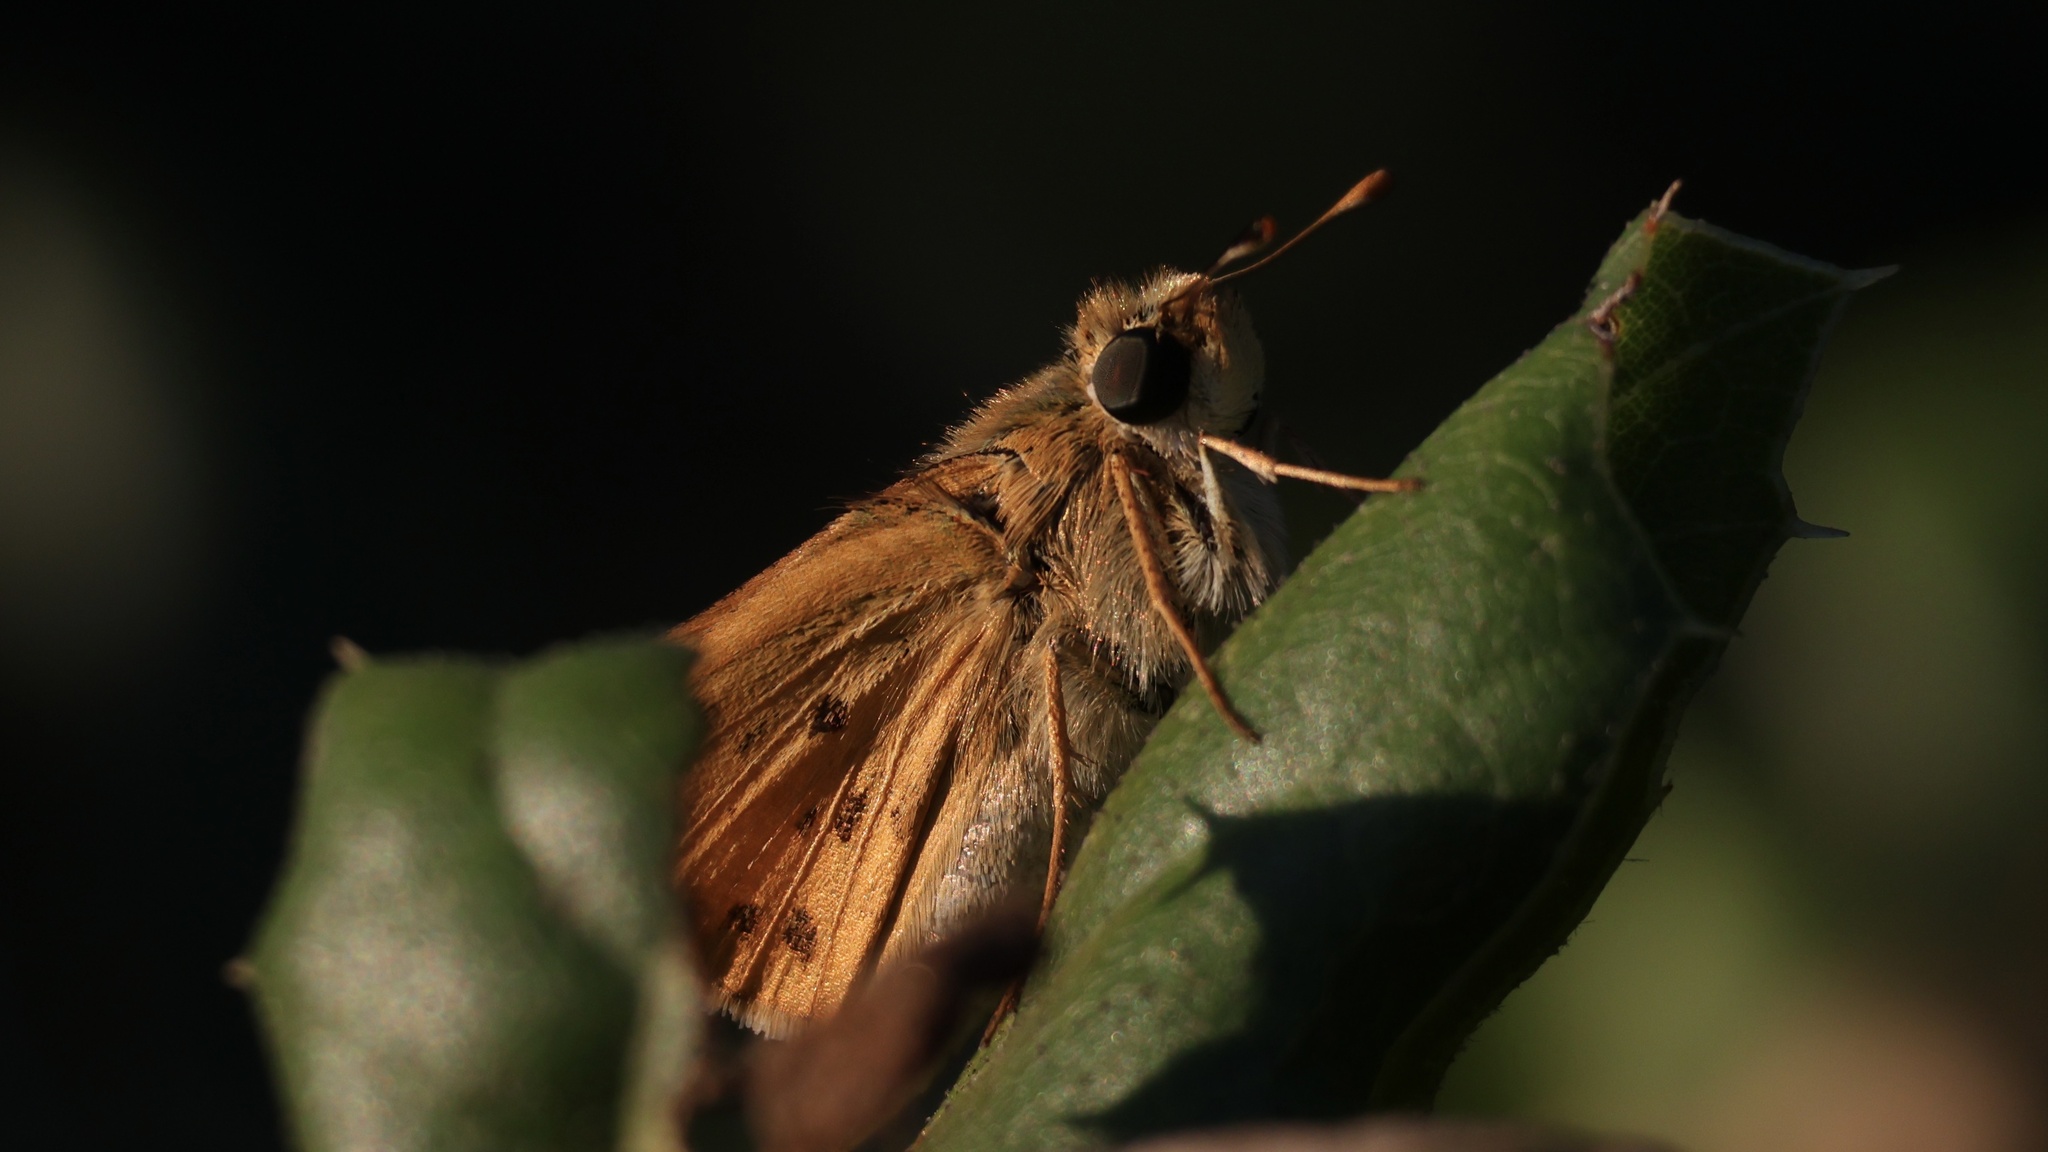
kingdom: Animalia
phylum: Arthropoda
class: Insecta
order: Lepidoptera
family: Hesperiidae
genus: Hylephila
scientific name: Hylephila phyleus
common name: Fiery skipper
